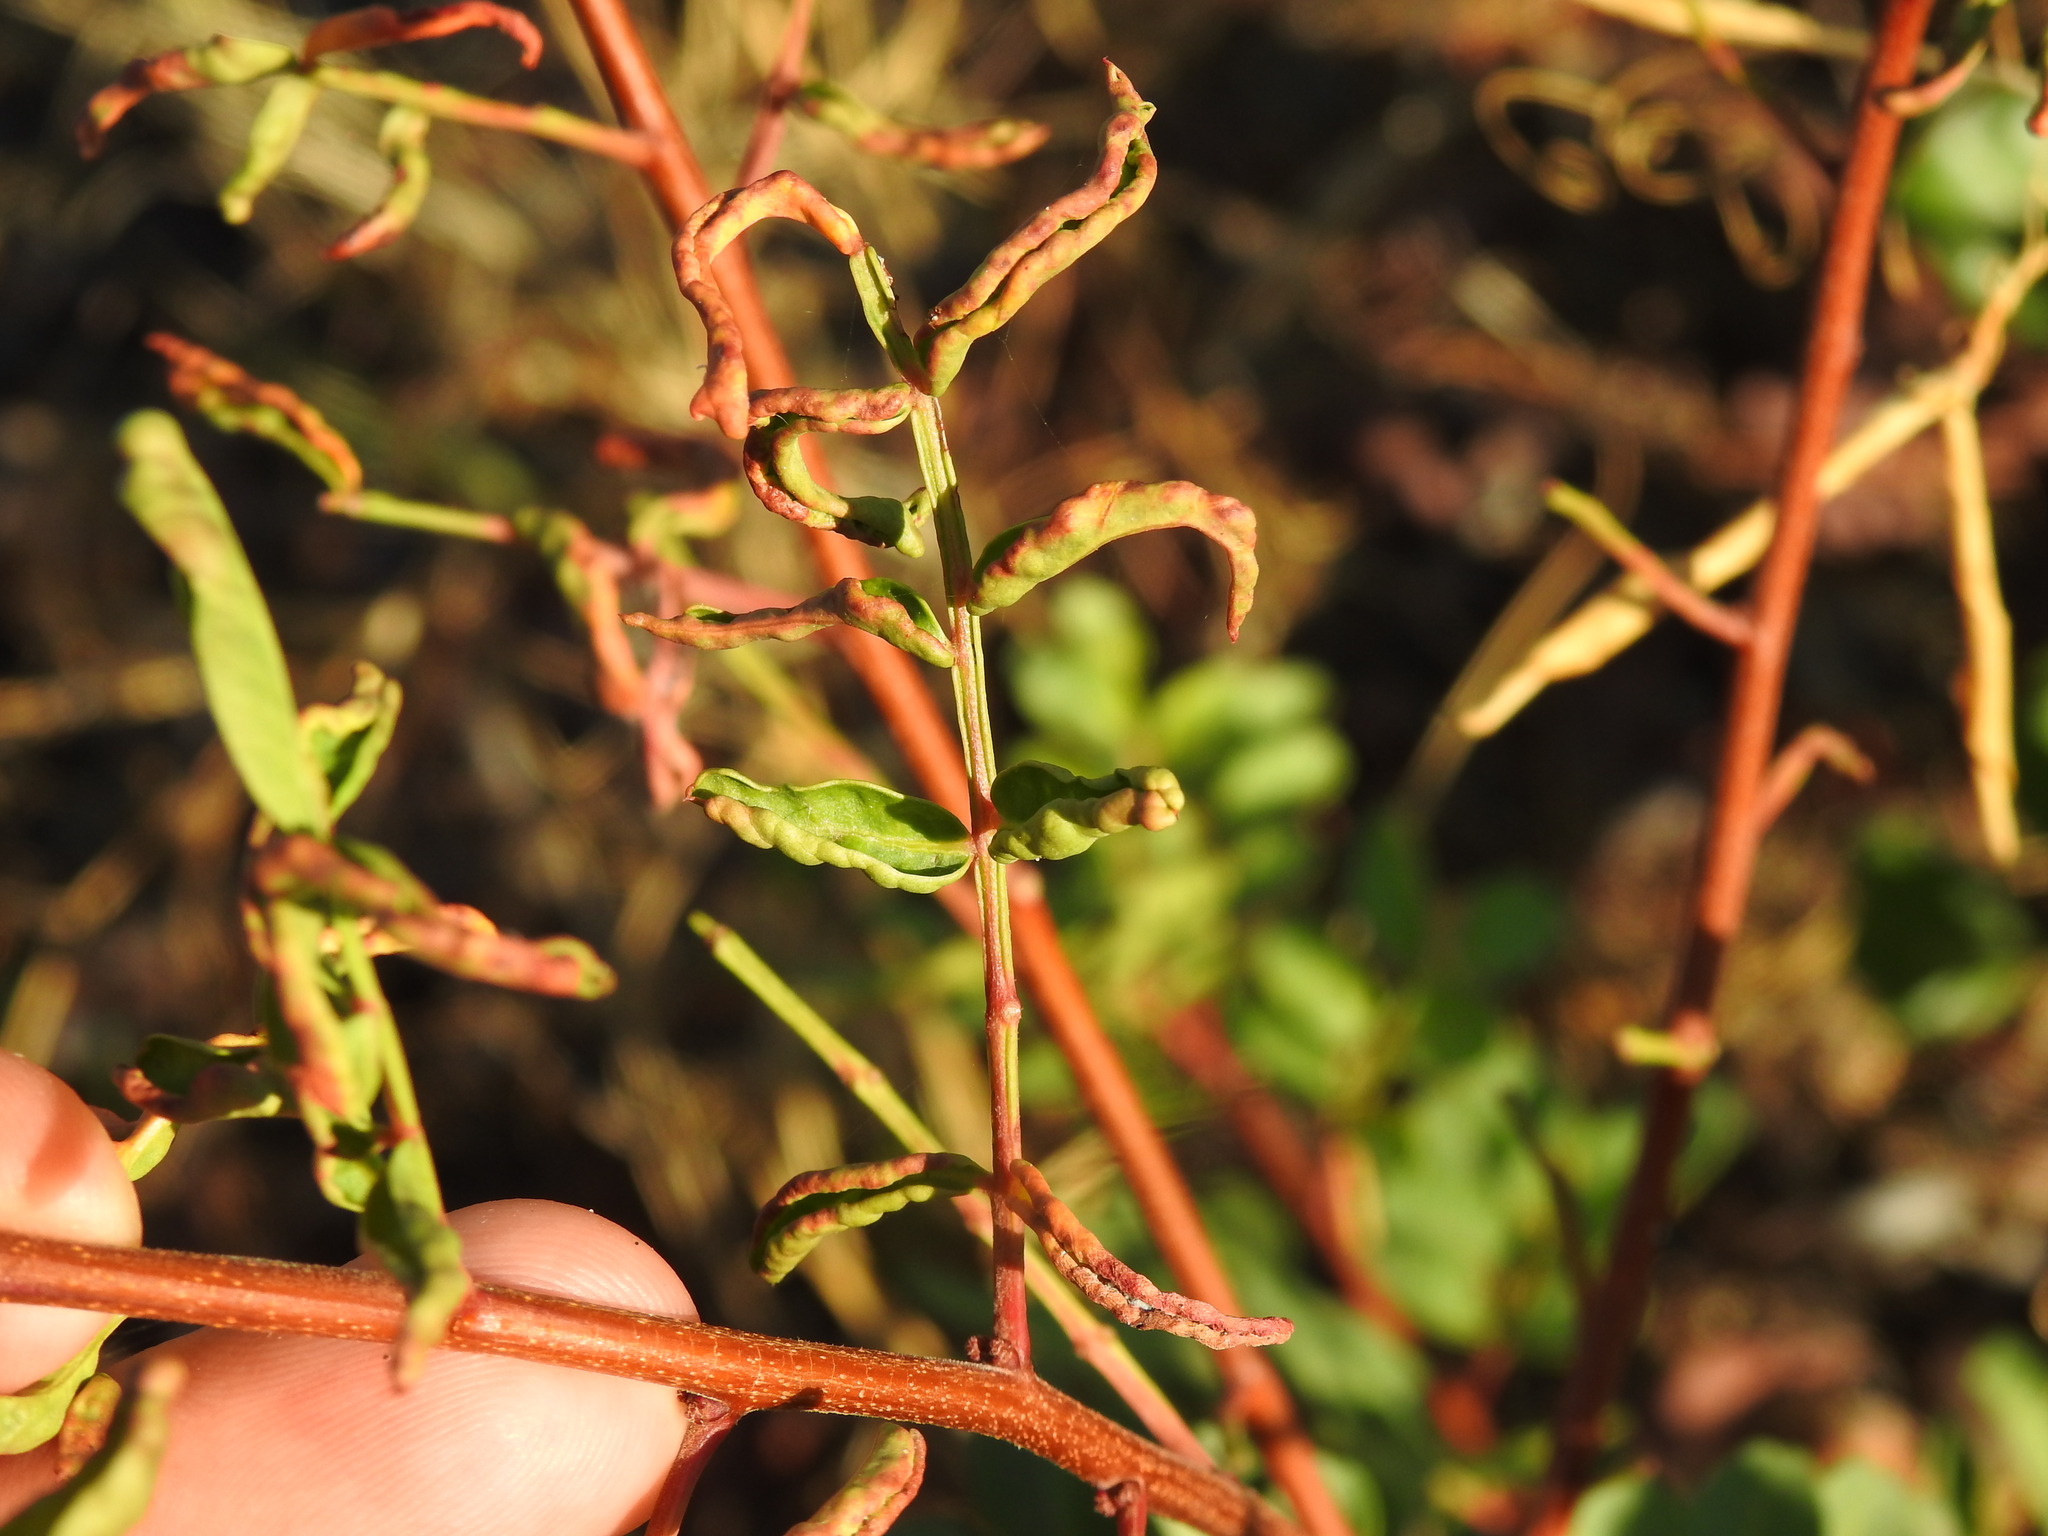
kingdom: Animalia
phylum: Arthropoda
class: Arachnida
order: Trombidiformes
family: Eriophyidae
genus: Aceria
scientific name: Aceria stefanii
